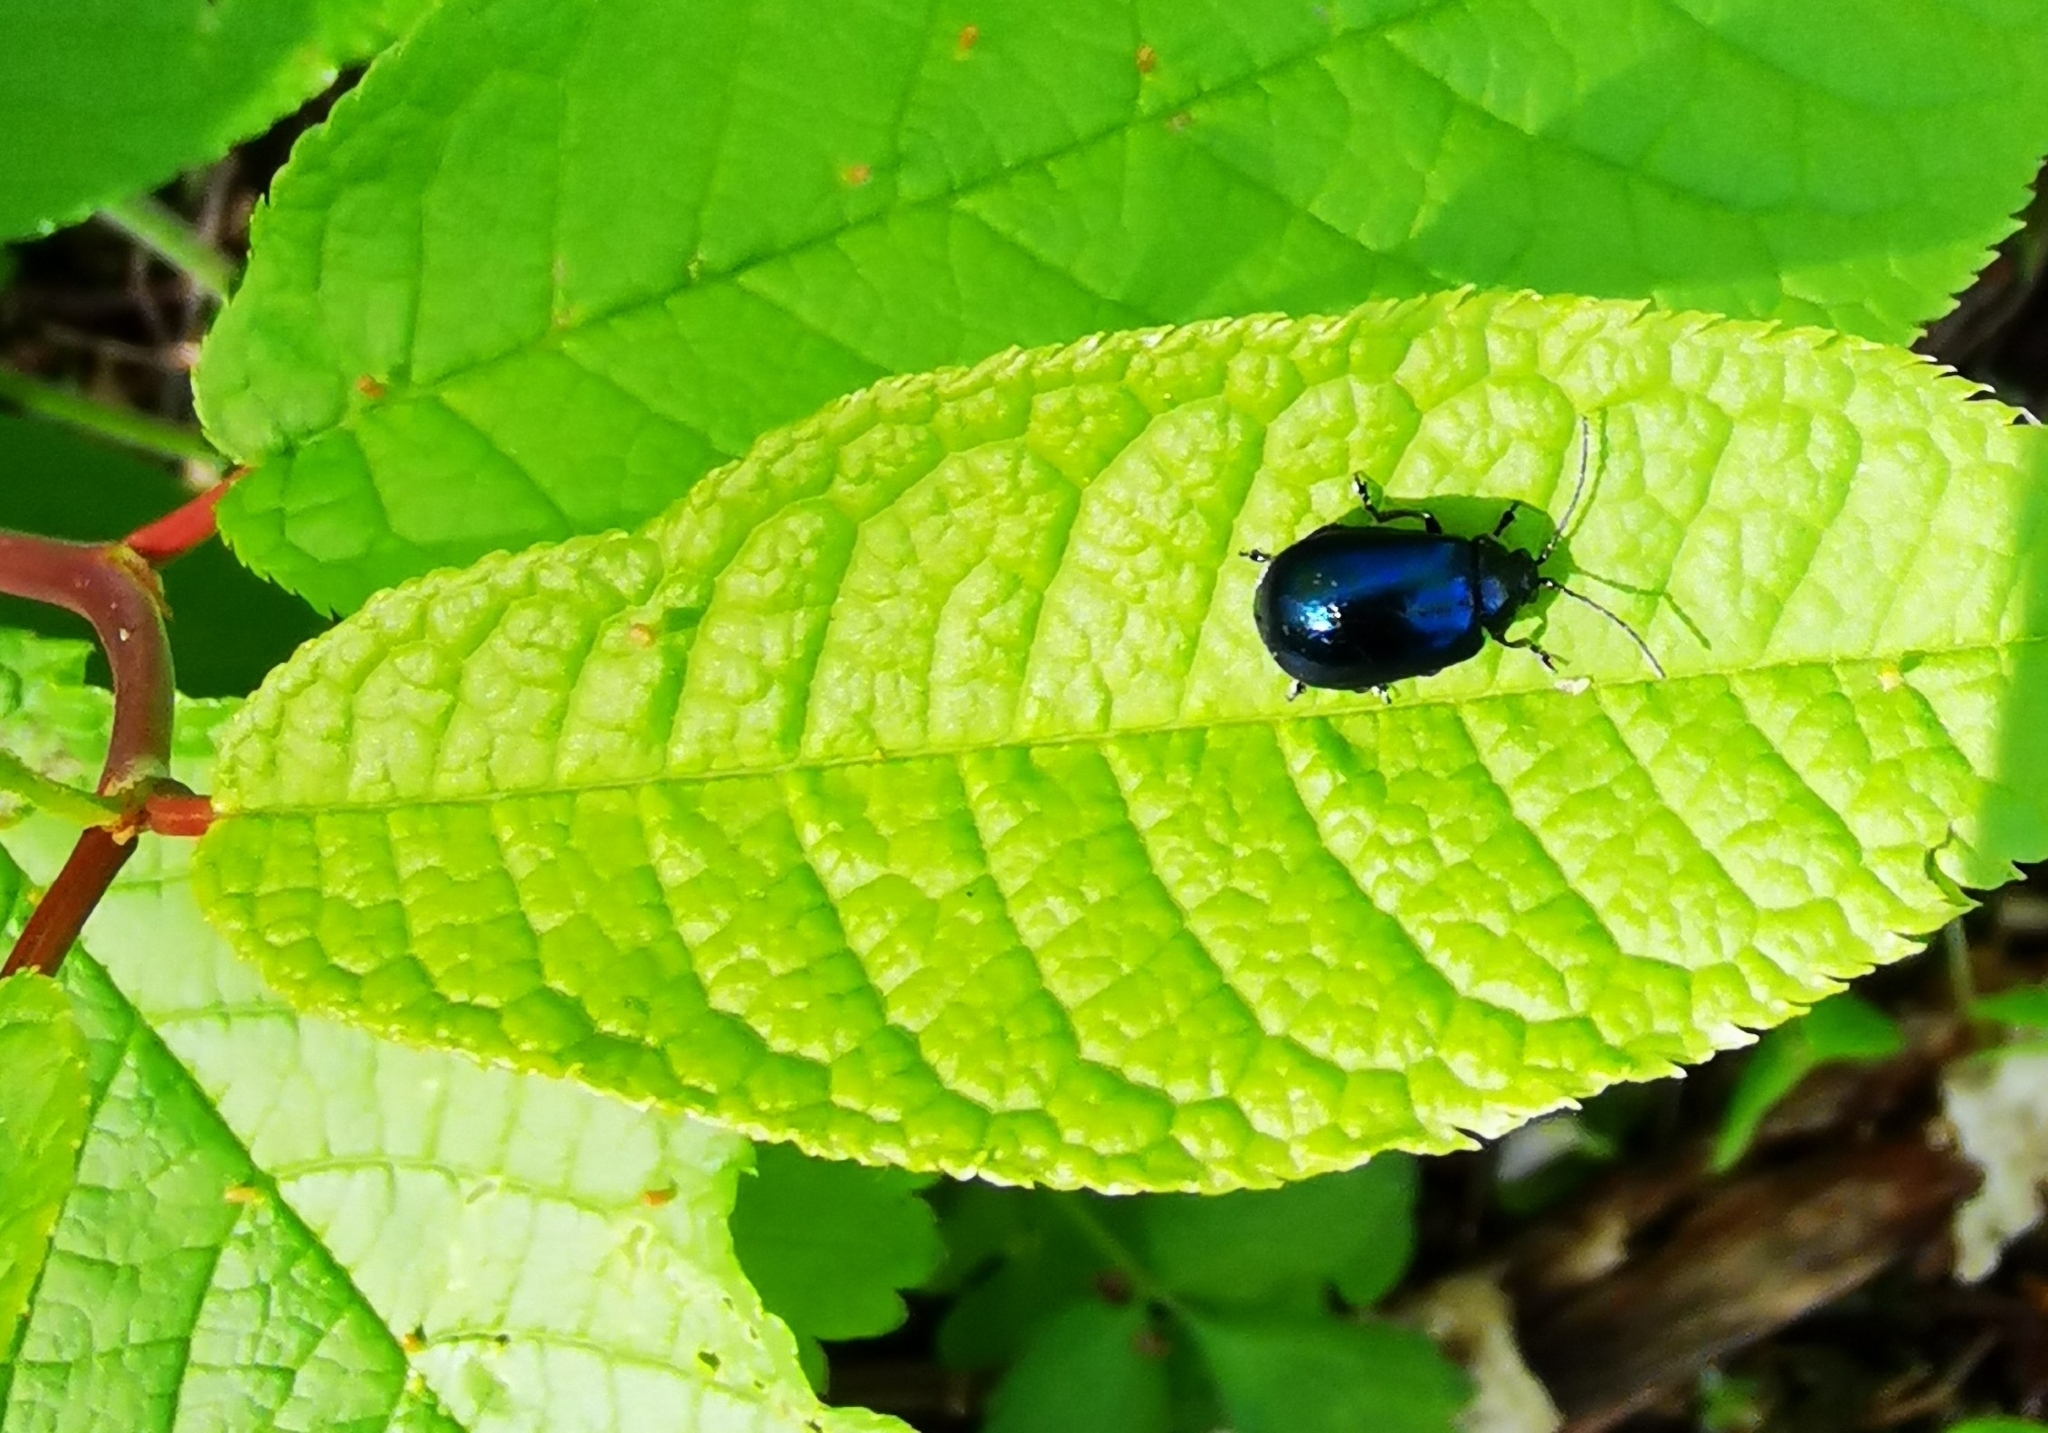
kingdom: Animalia
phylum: Arthropoda
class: Insecta
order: Coleoptera
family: Chrysomelidae
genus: Agelastica
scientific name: Agelastica alni
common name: Alder leaf beetle
